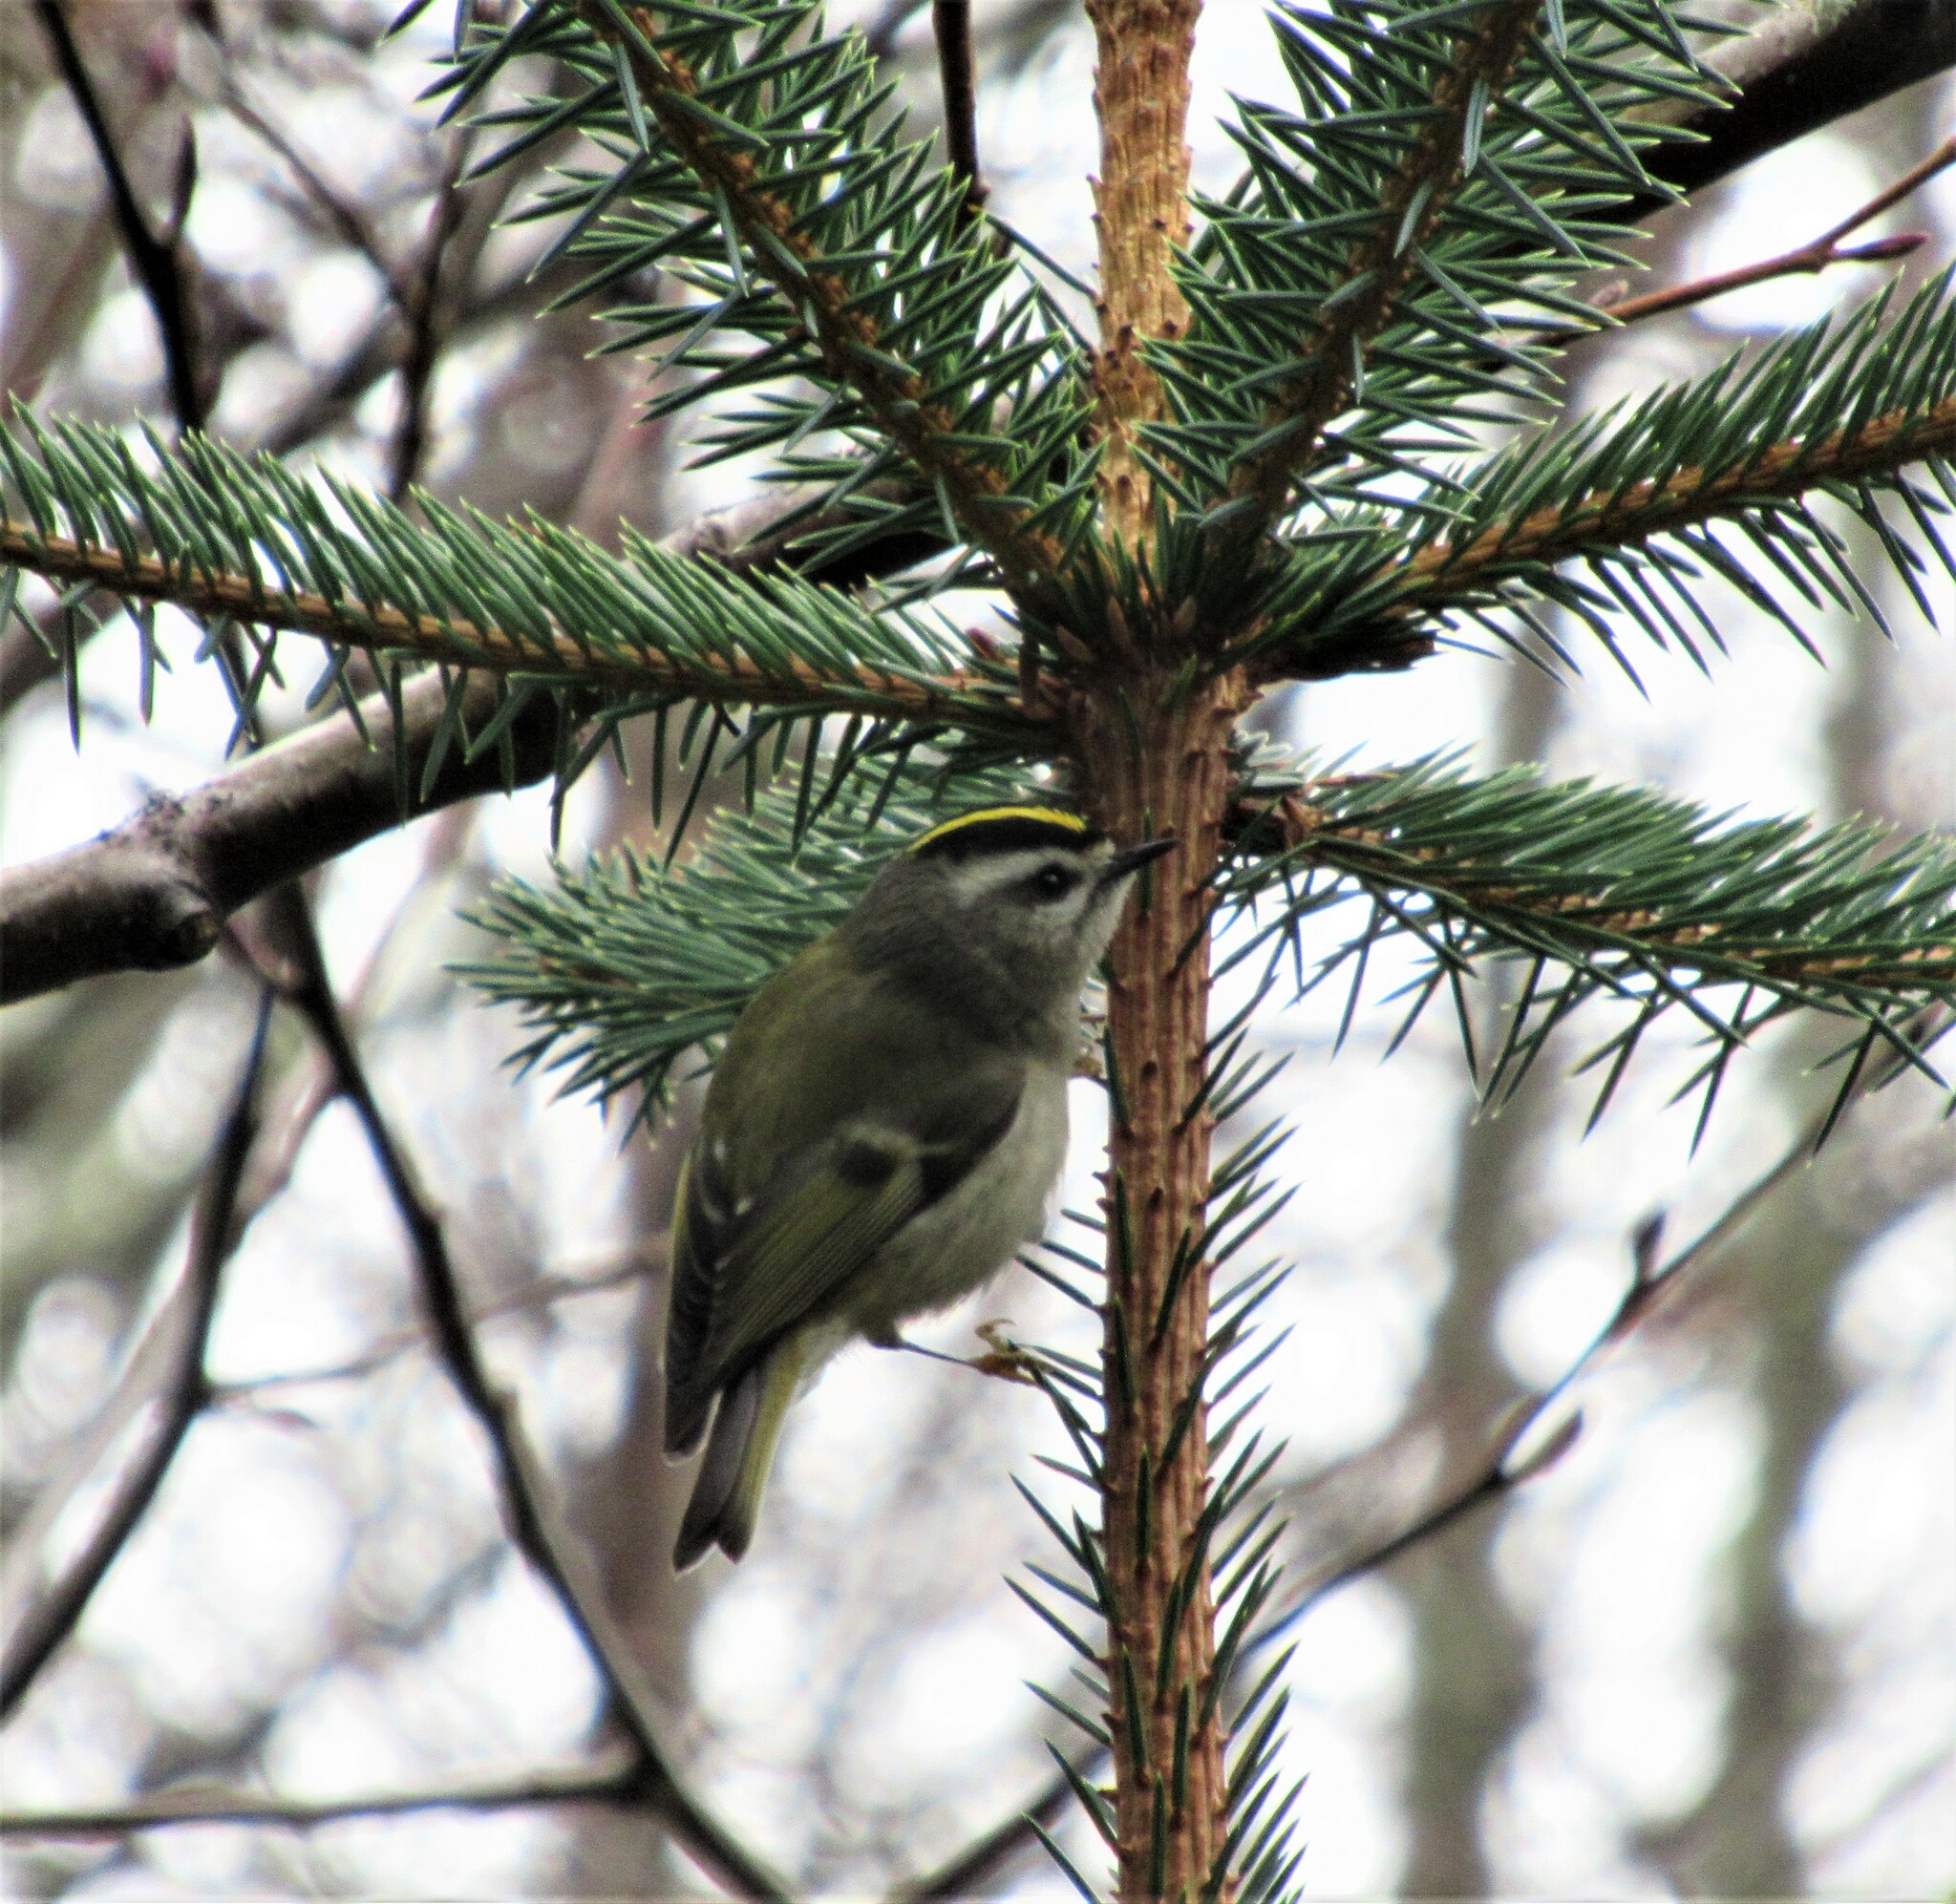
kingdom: Animalia
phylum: Chordata
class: Aves
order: Passeriformes
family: Regulidae
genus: Regulus
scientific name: Regulus satrapa
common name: Golden-crowned kinglet
